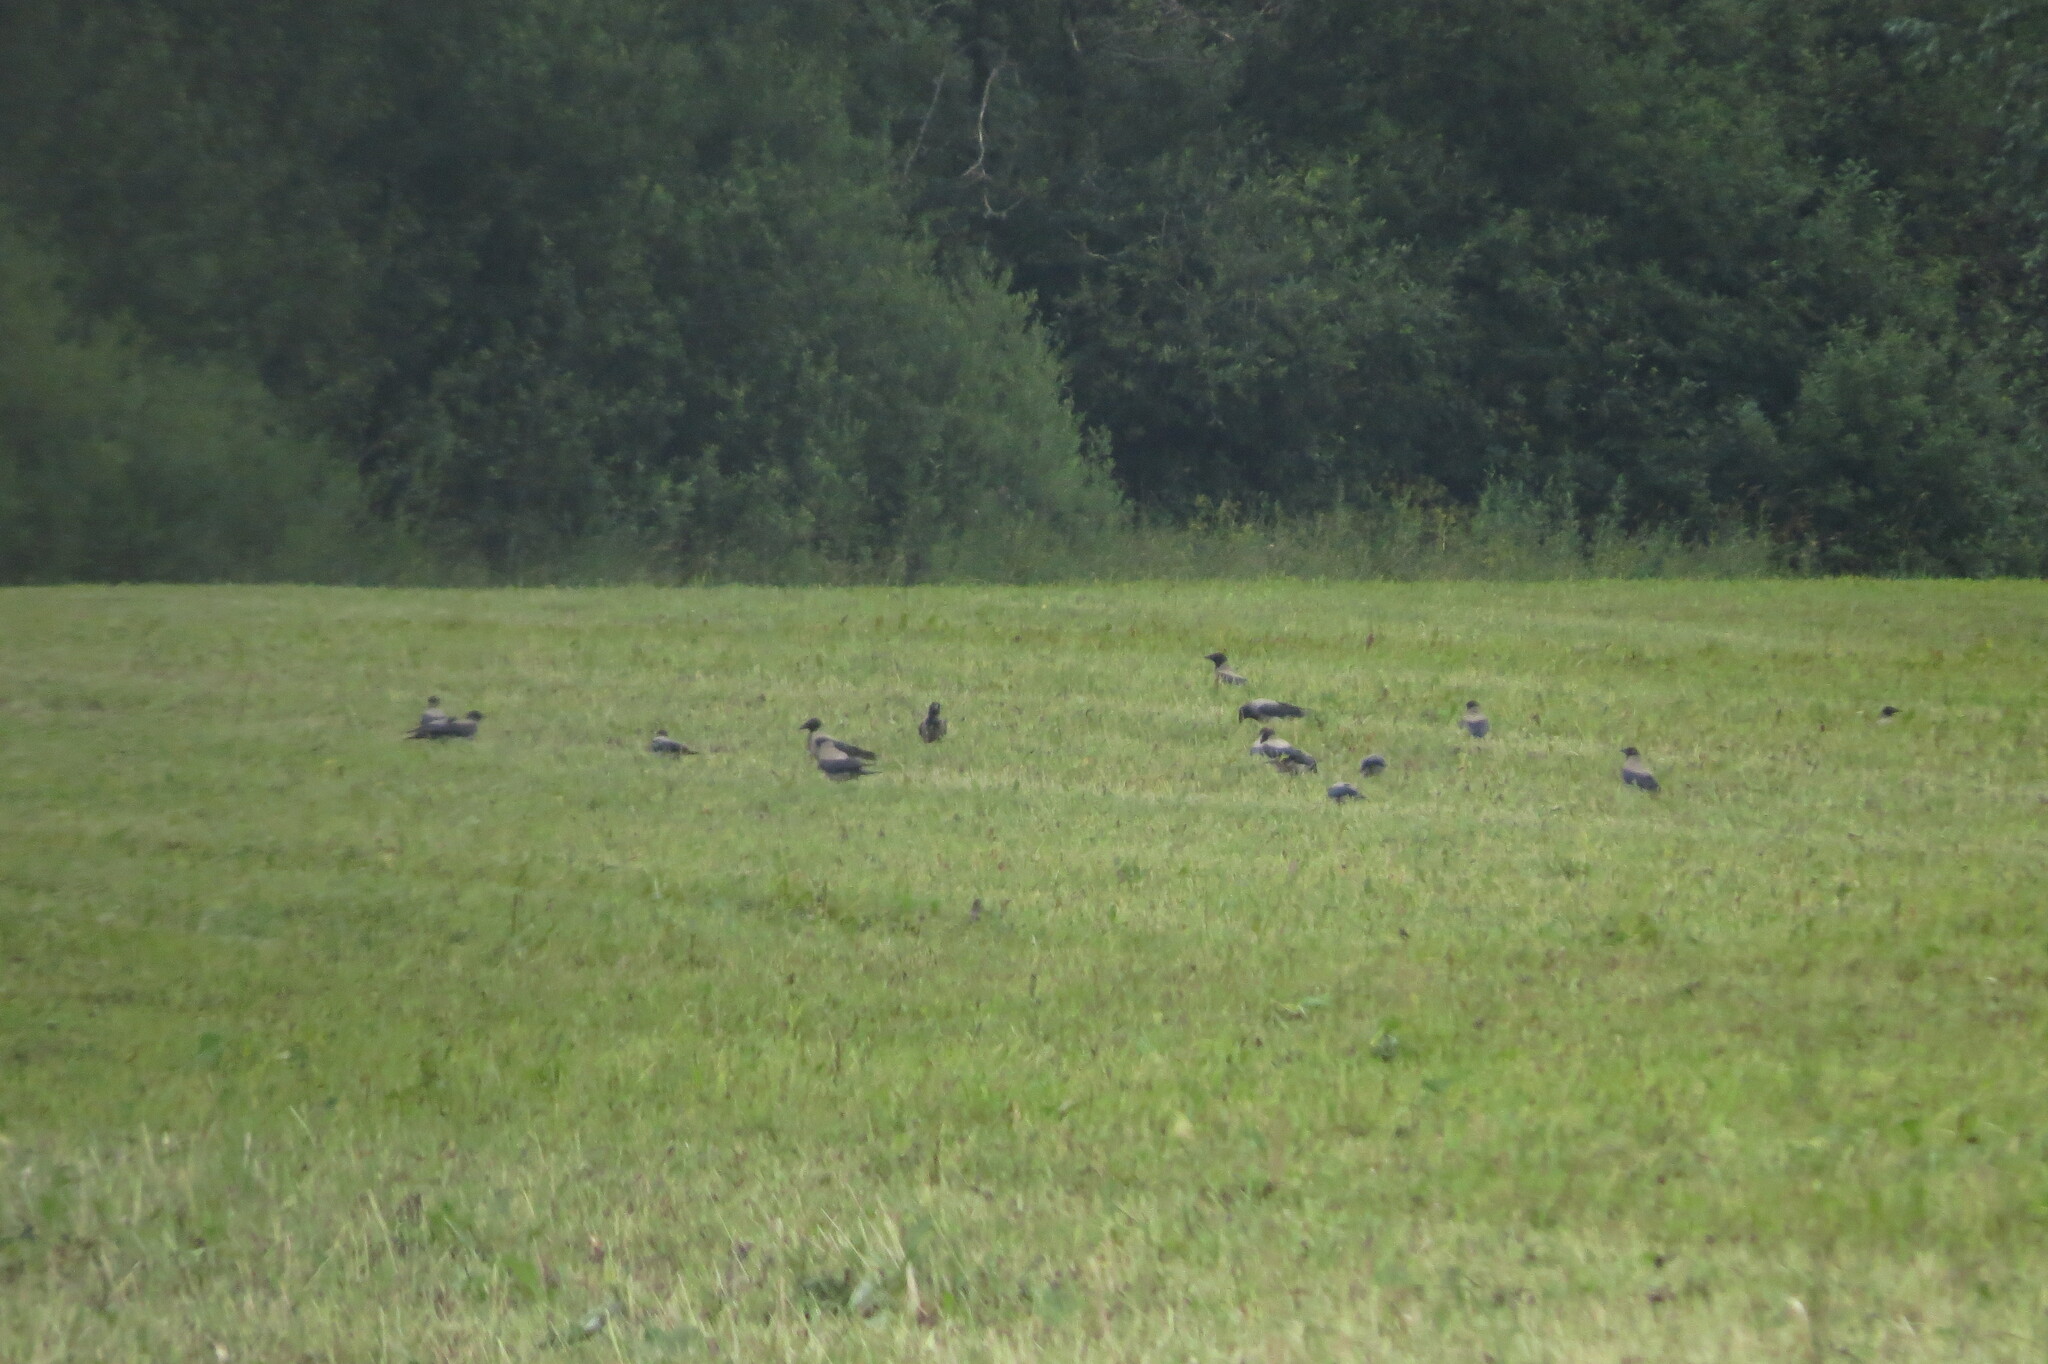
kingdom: Animalia
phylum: Chordata
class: Aves
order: Passeriformes
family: Corvidae
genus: Corvus
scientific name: Corvus cornix
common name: Hooded crow
